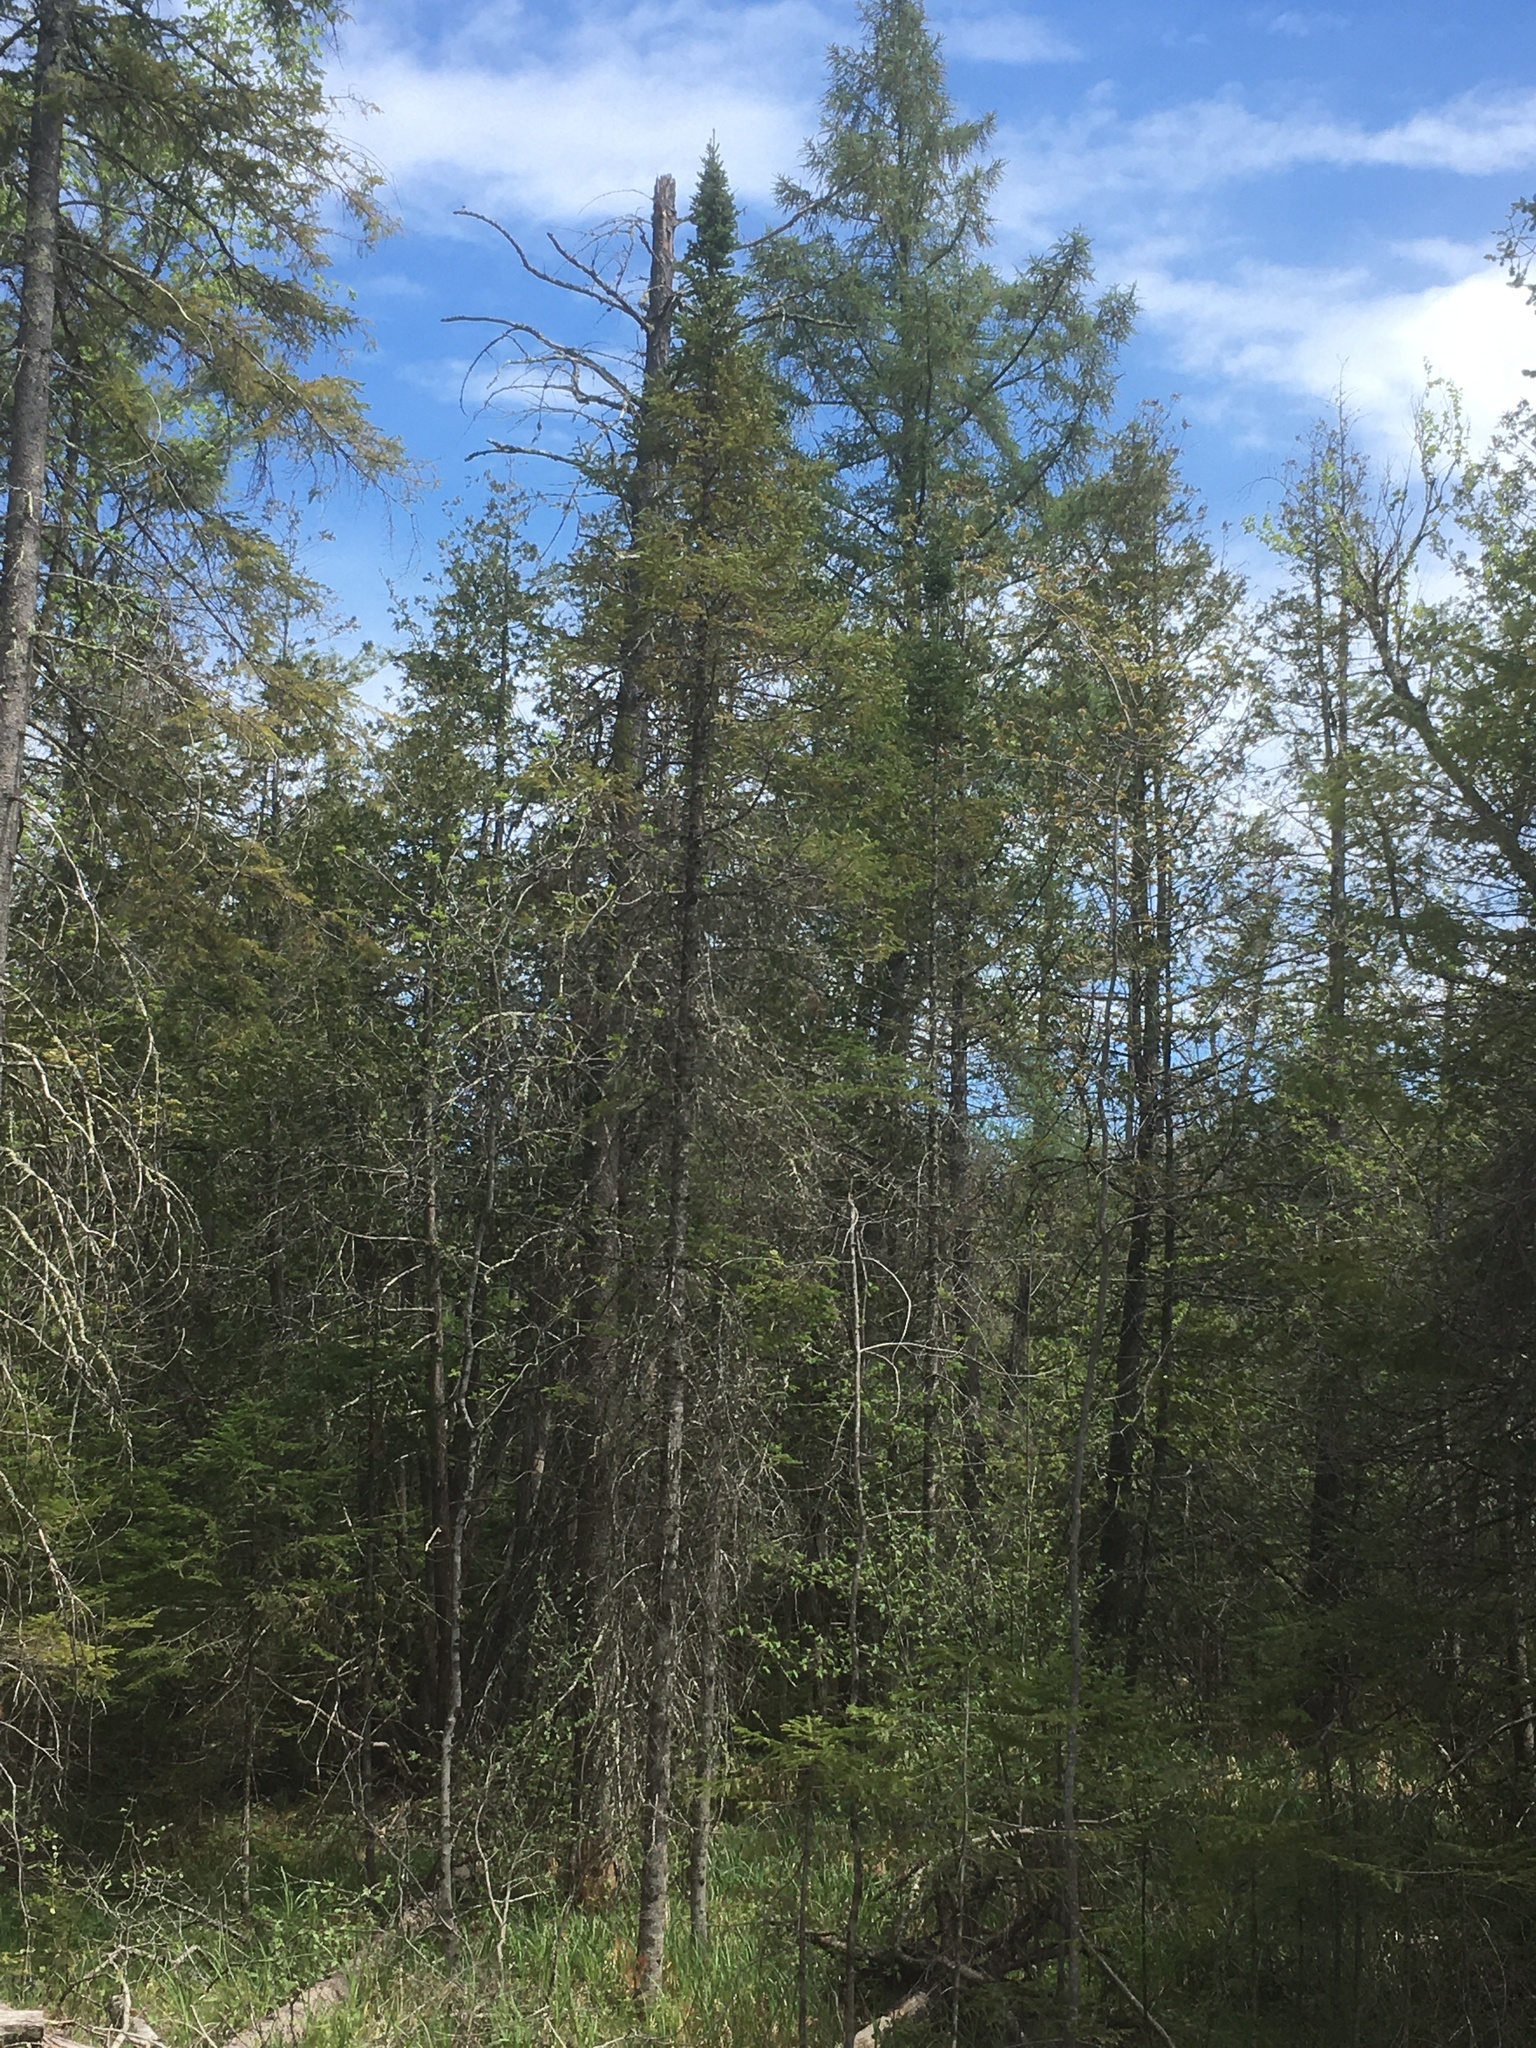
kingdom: Plantae
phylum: Tracheophyta
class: Pinopsida
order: Pinales
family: Pinaceae
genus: Abies
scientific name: Abies balsamea
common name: Balsam fir
